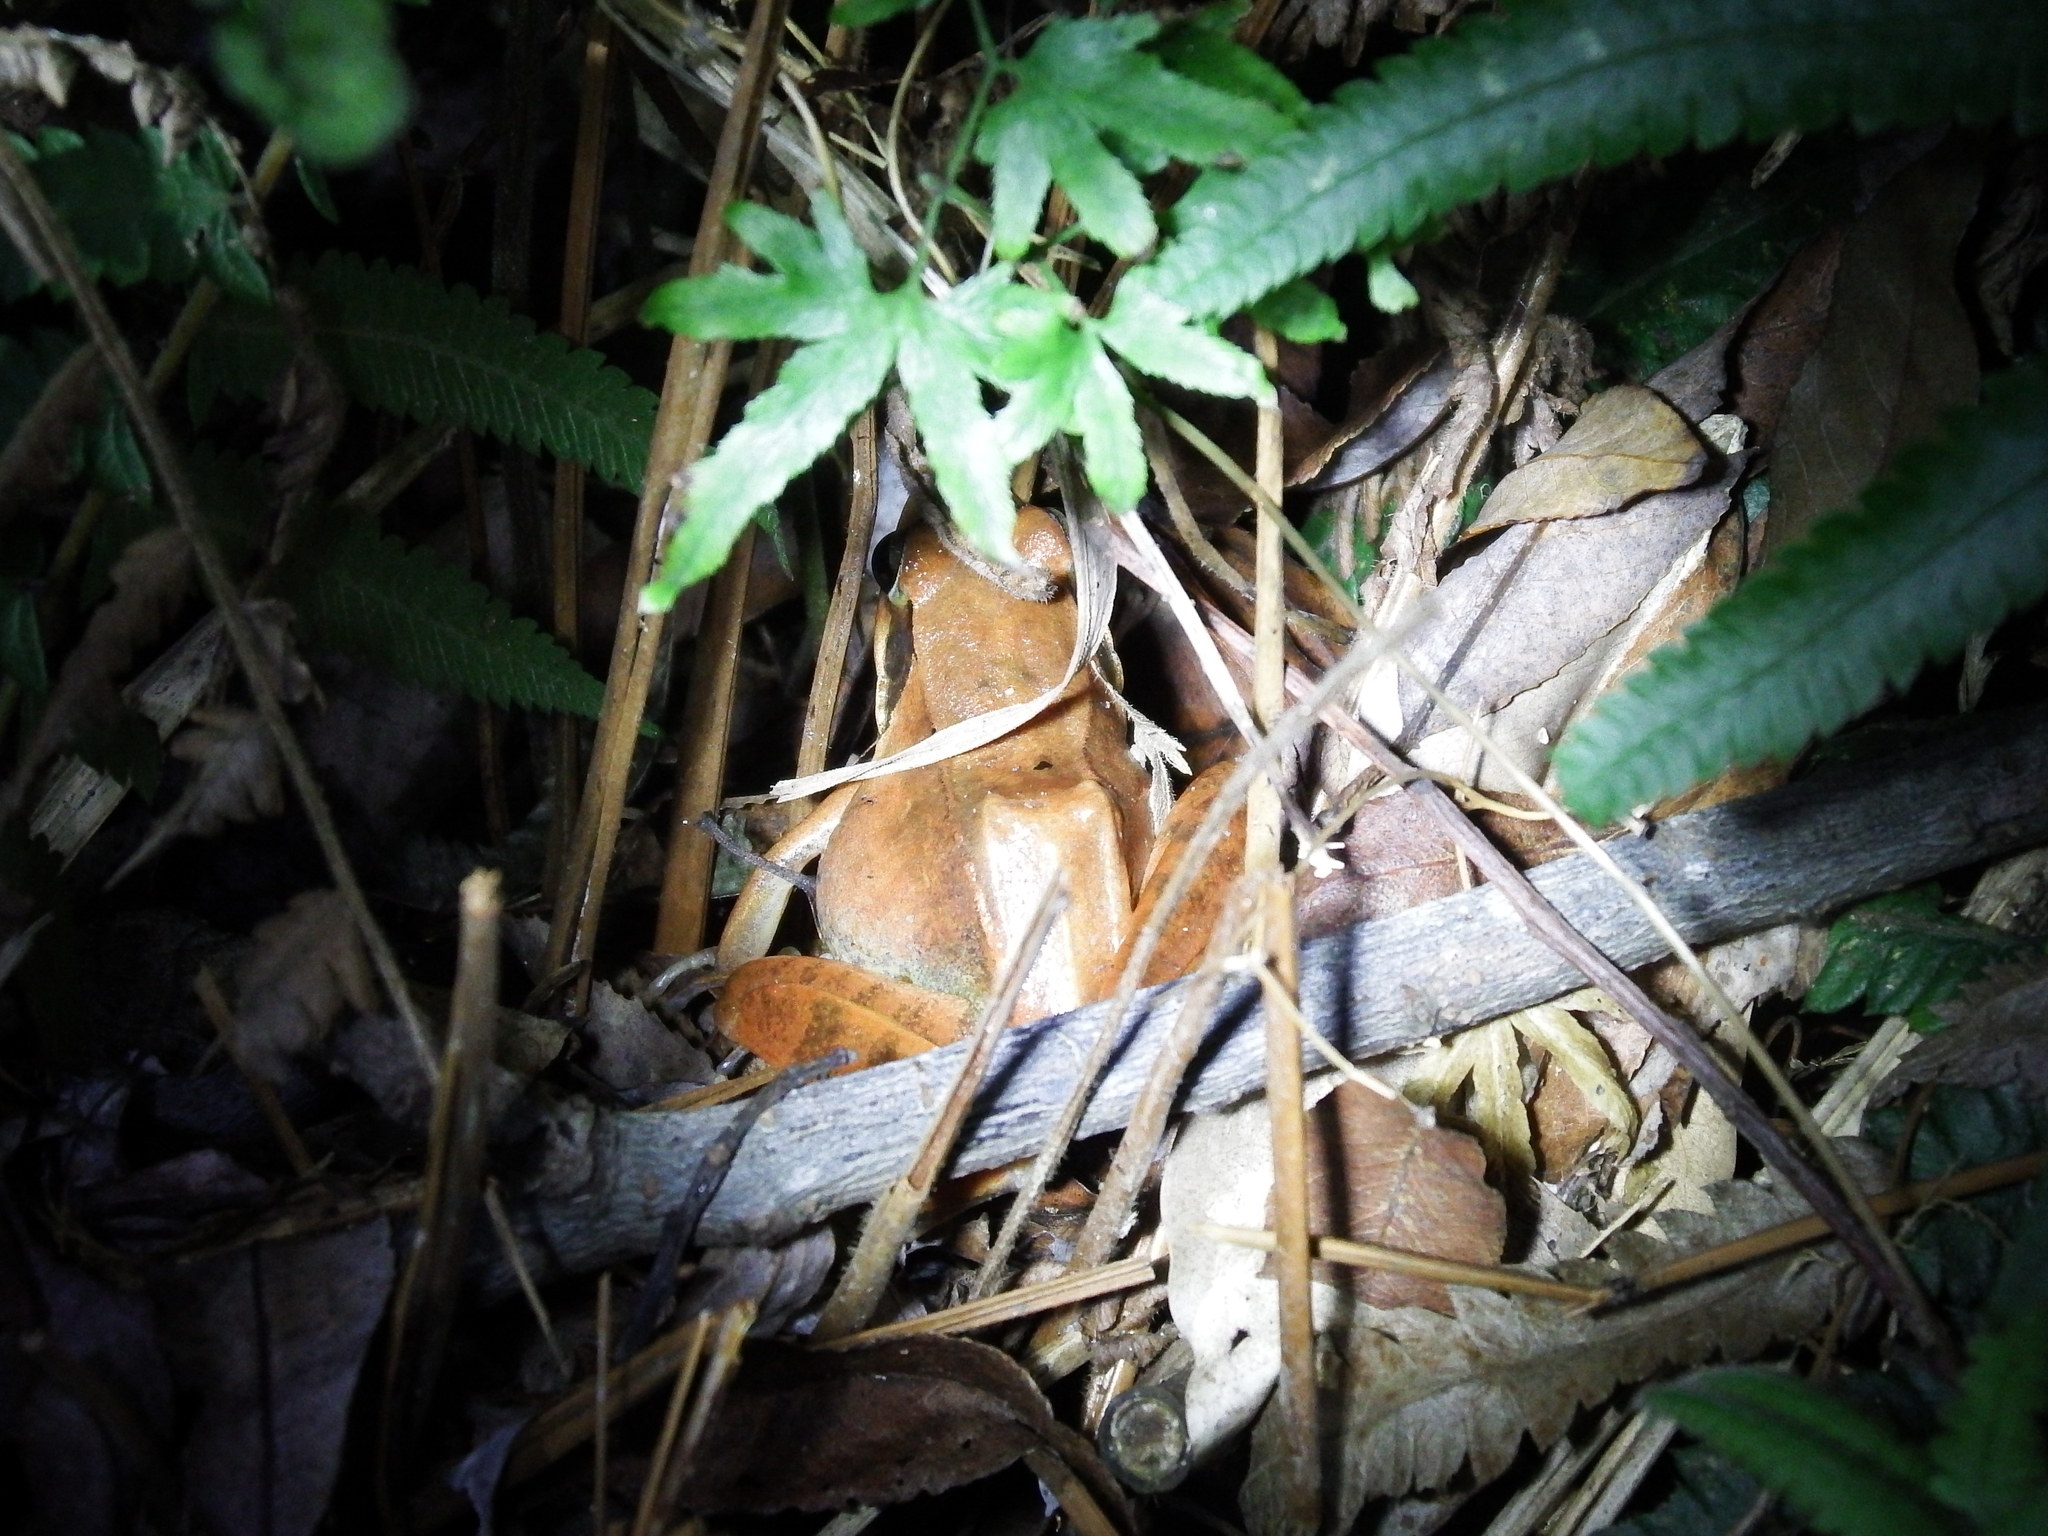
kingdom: Animalia
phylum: Chordata
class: Amphibia
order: Anura
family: Ranidae
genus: Rana
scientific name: Rana longicrus
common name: Long-legged brown frog
